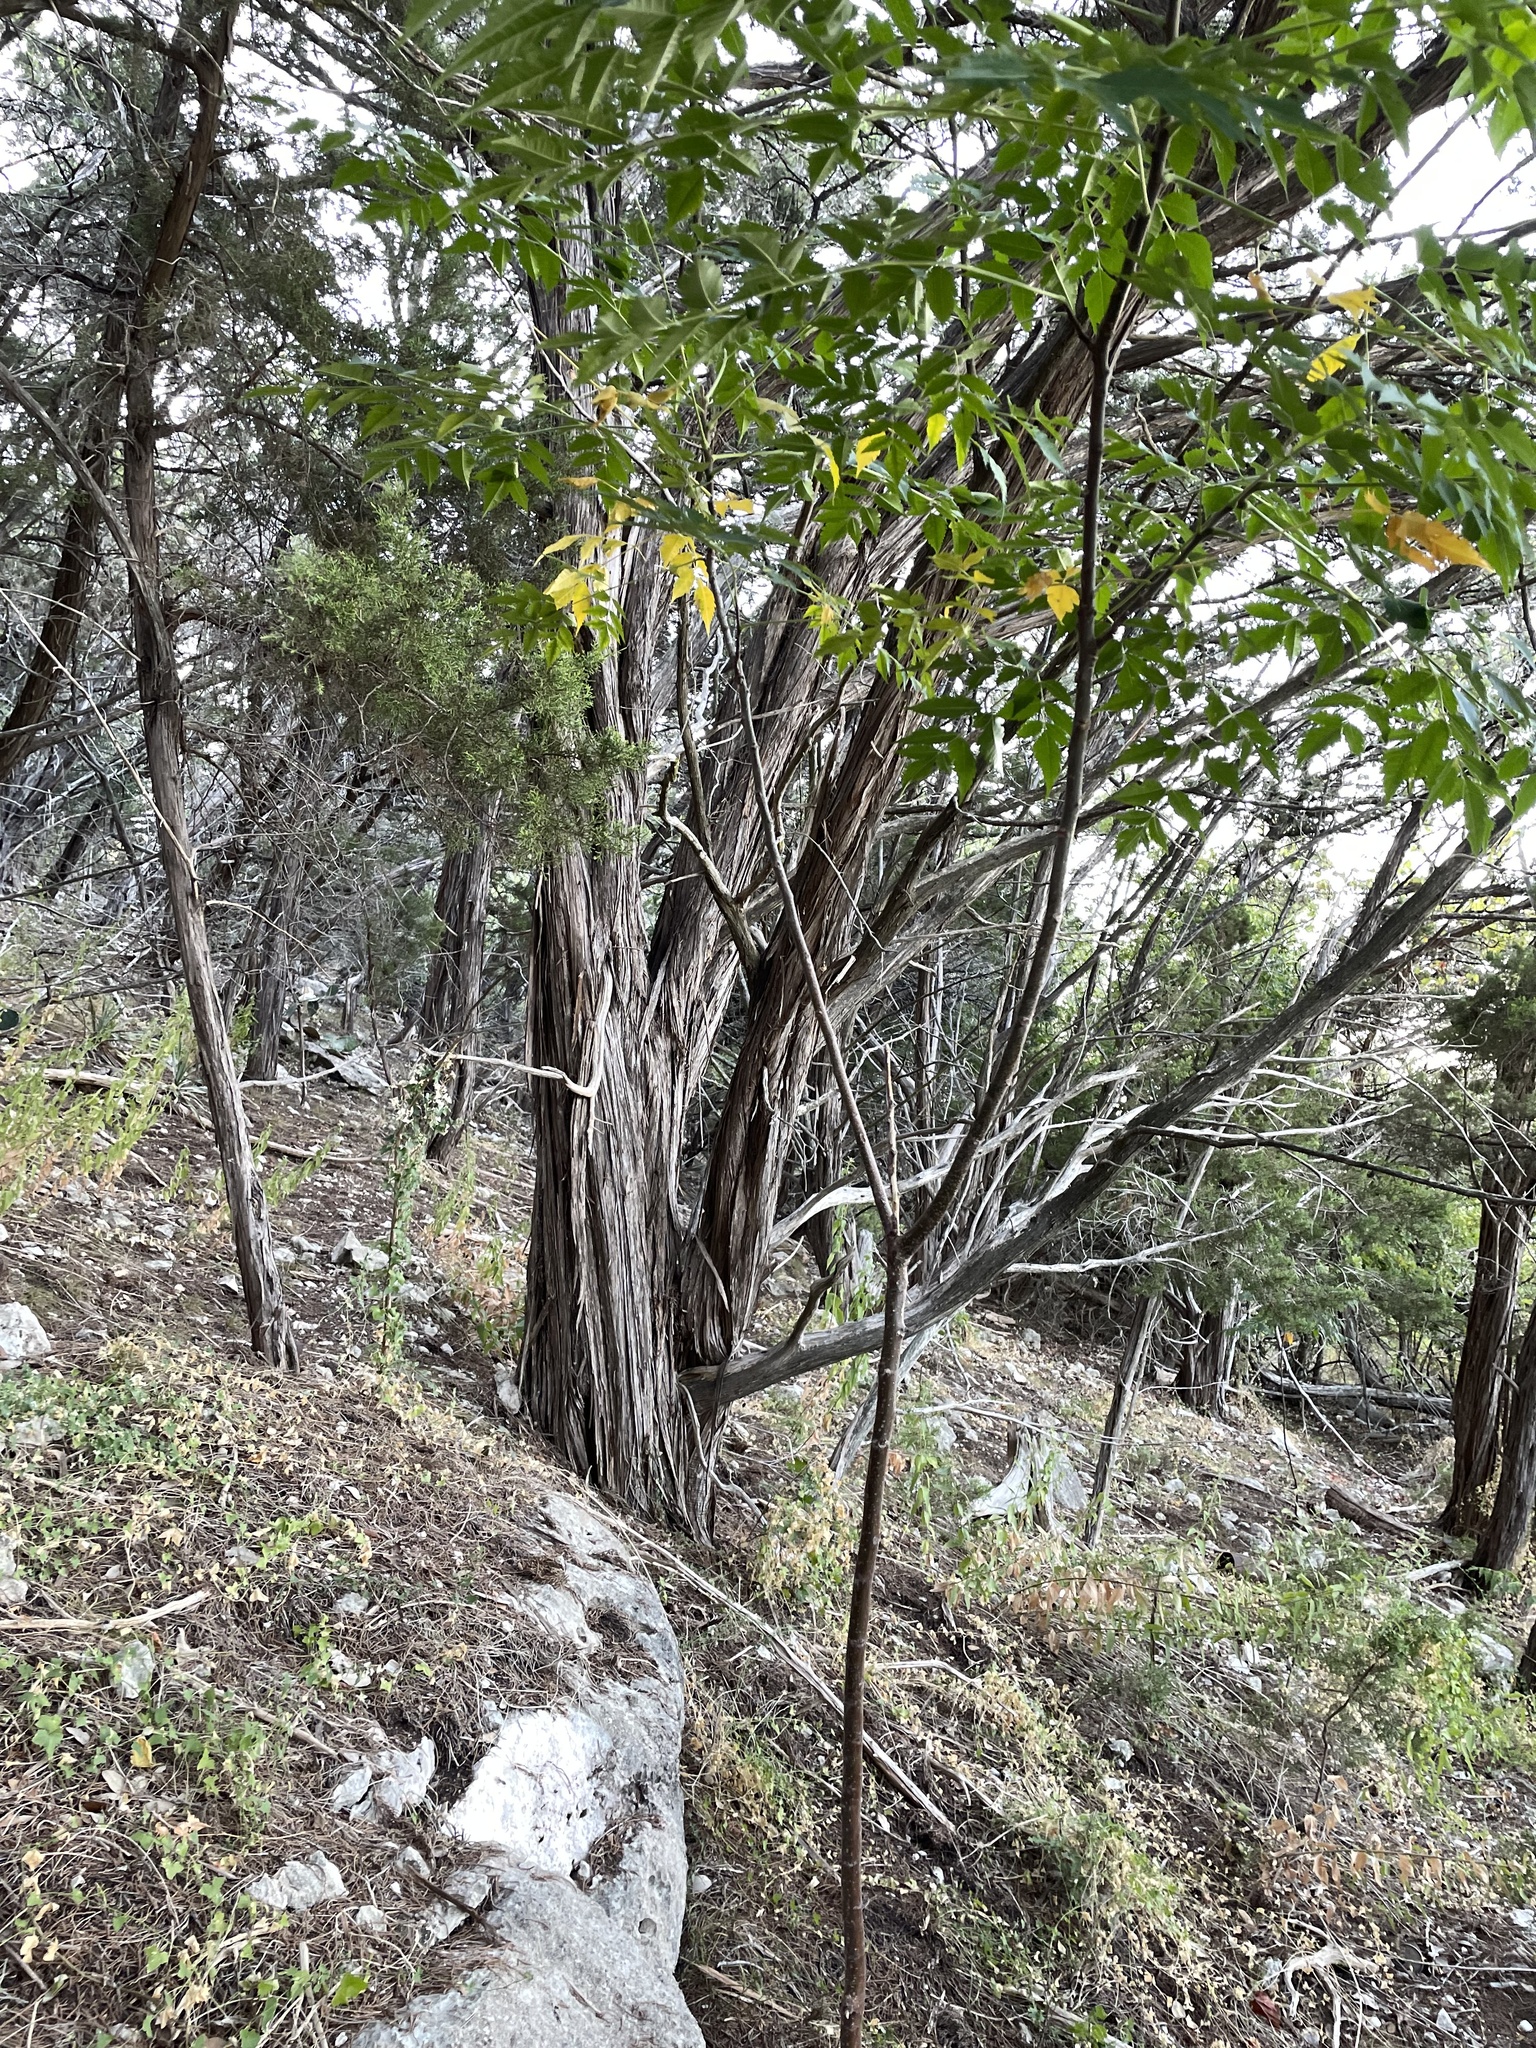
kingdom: Plantae
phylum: Tracheophyta
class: Pinopsida
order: Pinales
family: Cupressaceae
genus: Juniperus
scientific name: Juniperus ashei
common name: Mexican juniper
